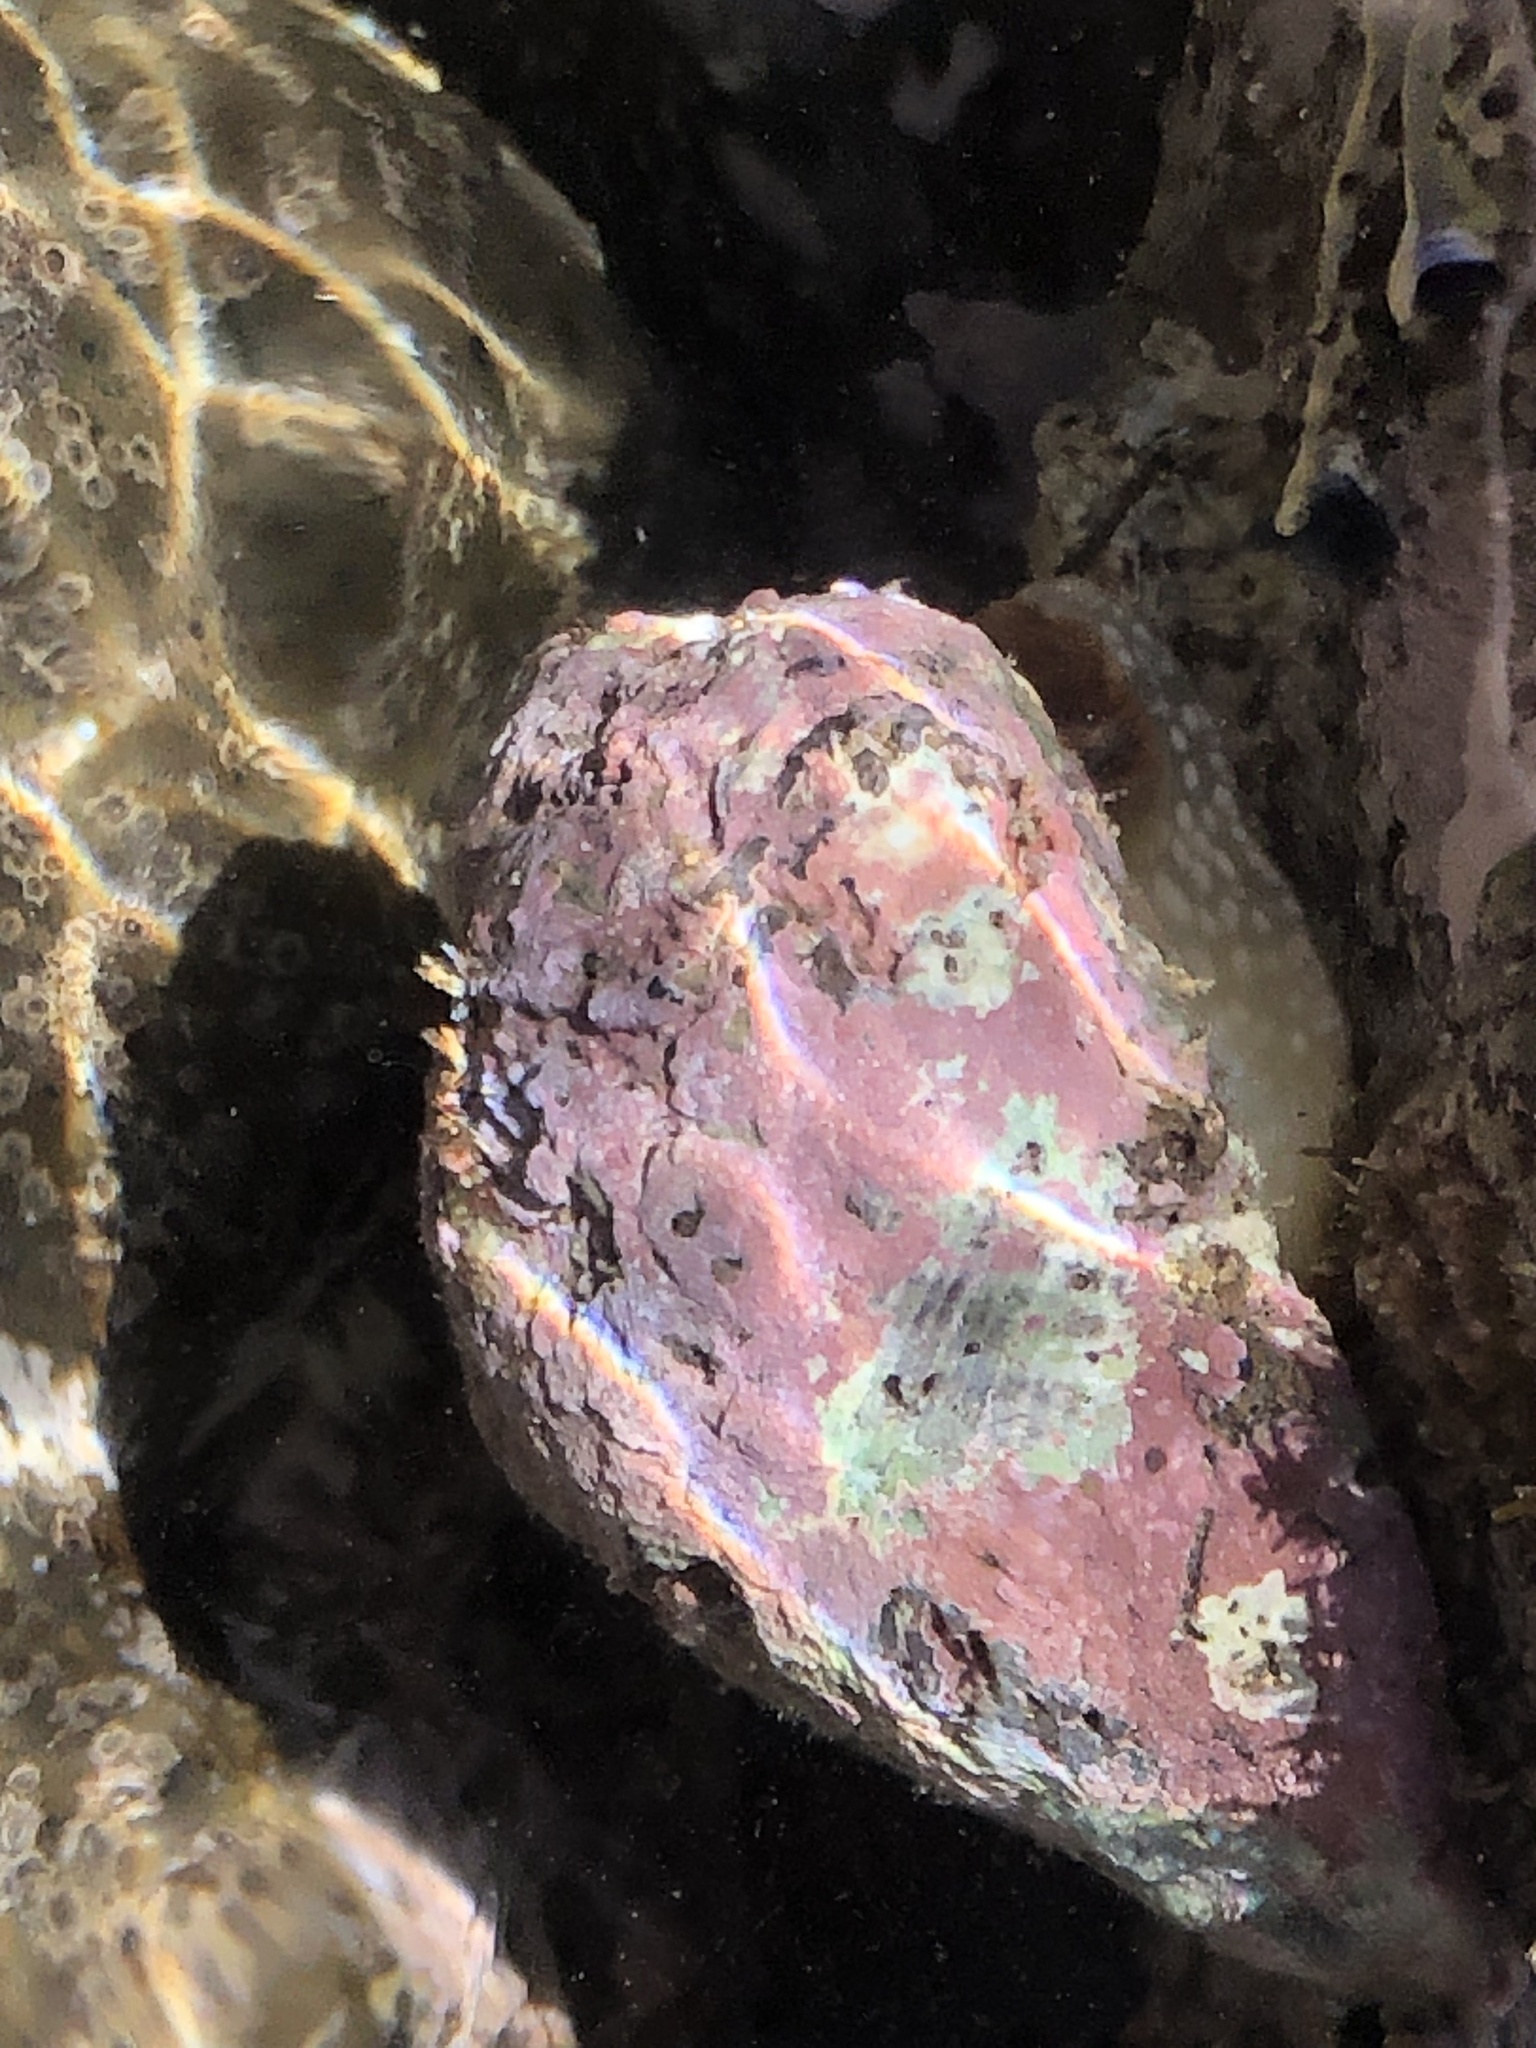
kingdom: Animalia
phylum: Mollusca
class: Gastropoda
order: Neogastropoda
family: Muricidae
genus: Haustrum
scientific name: Haustrum haustorium
